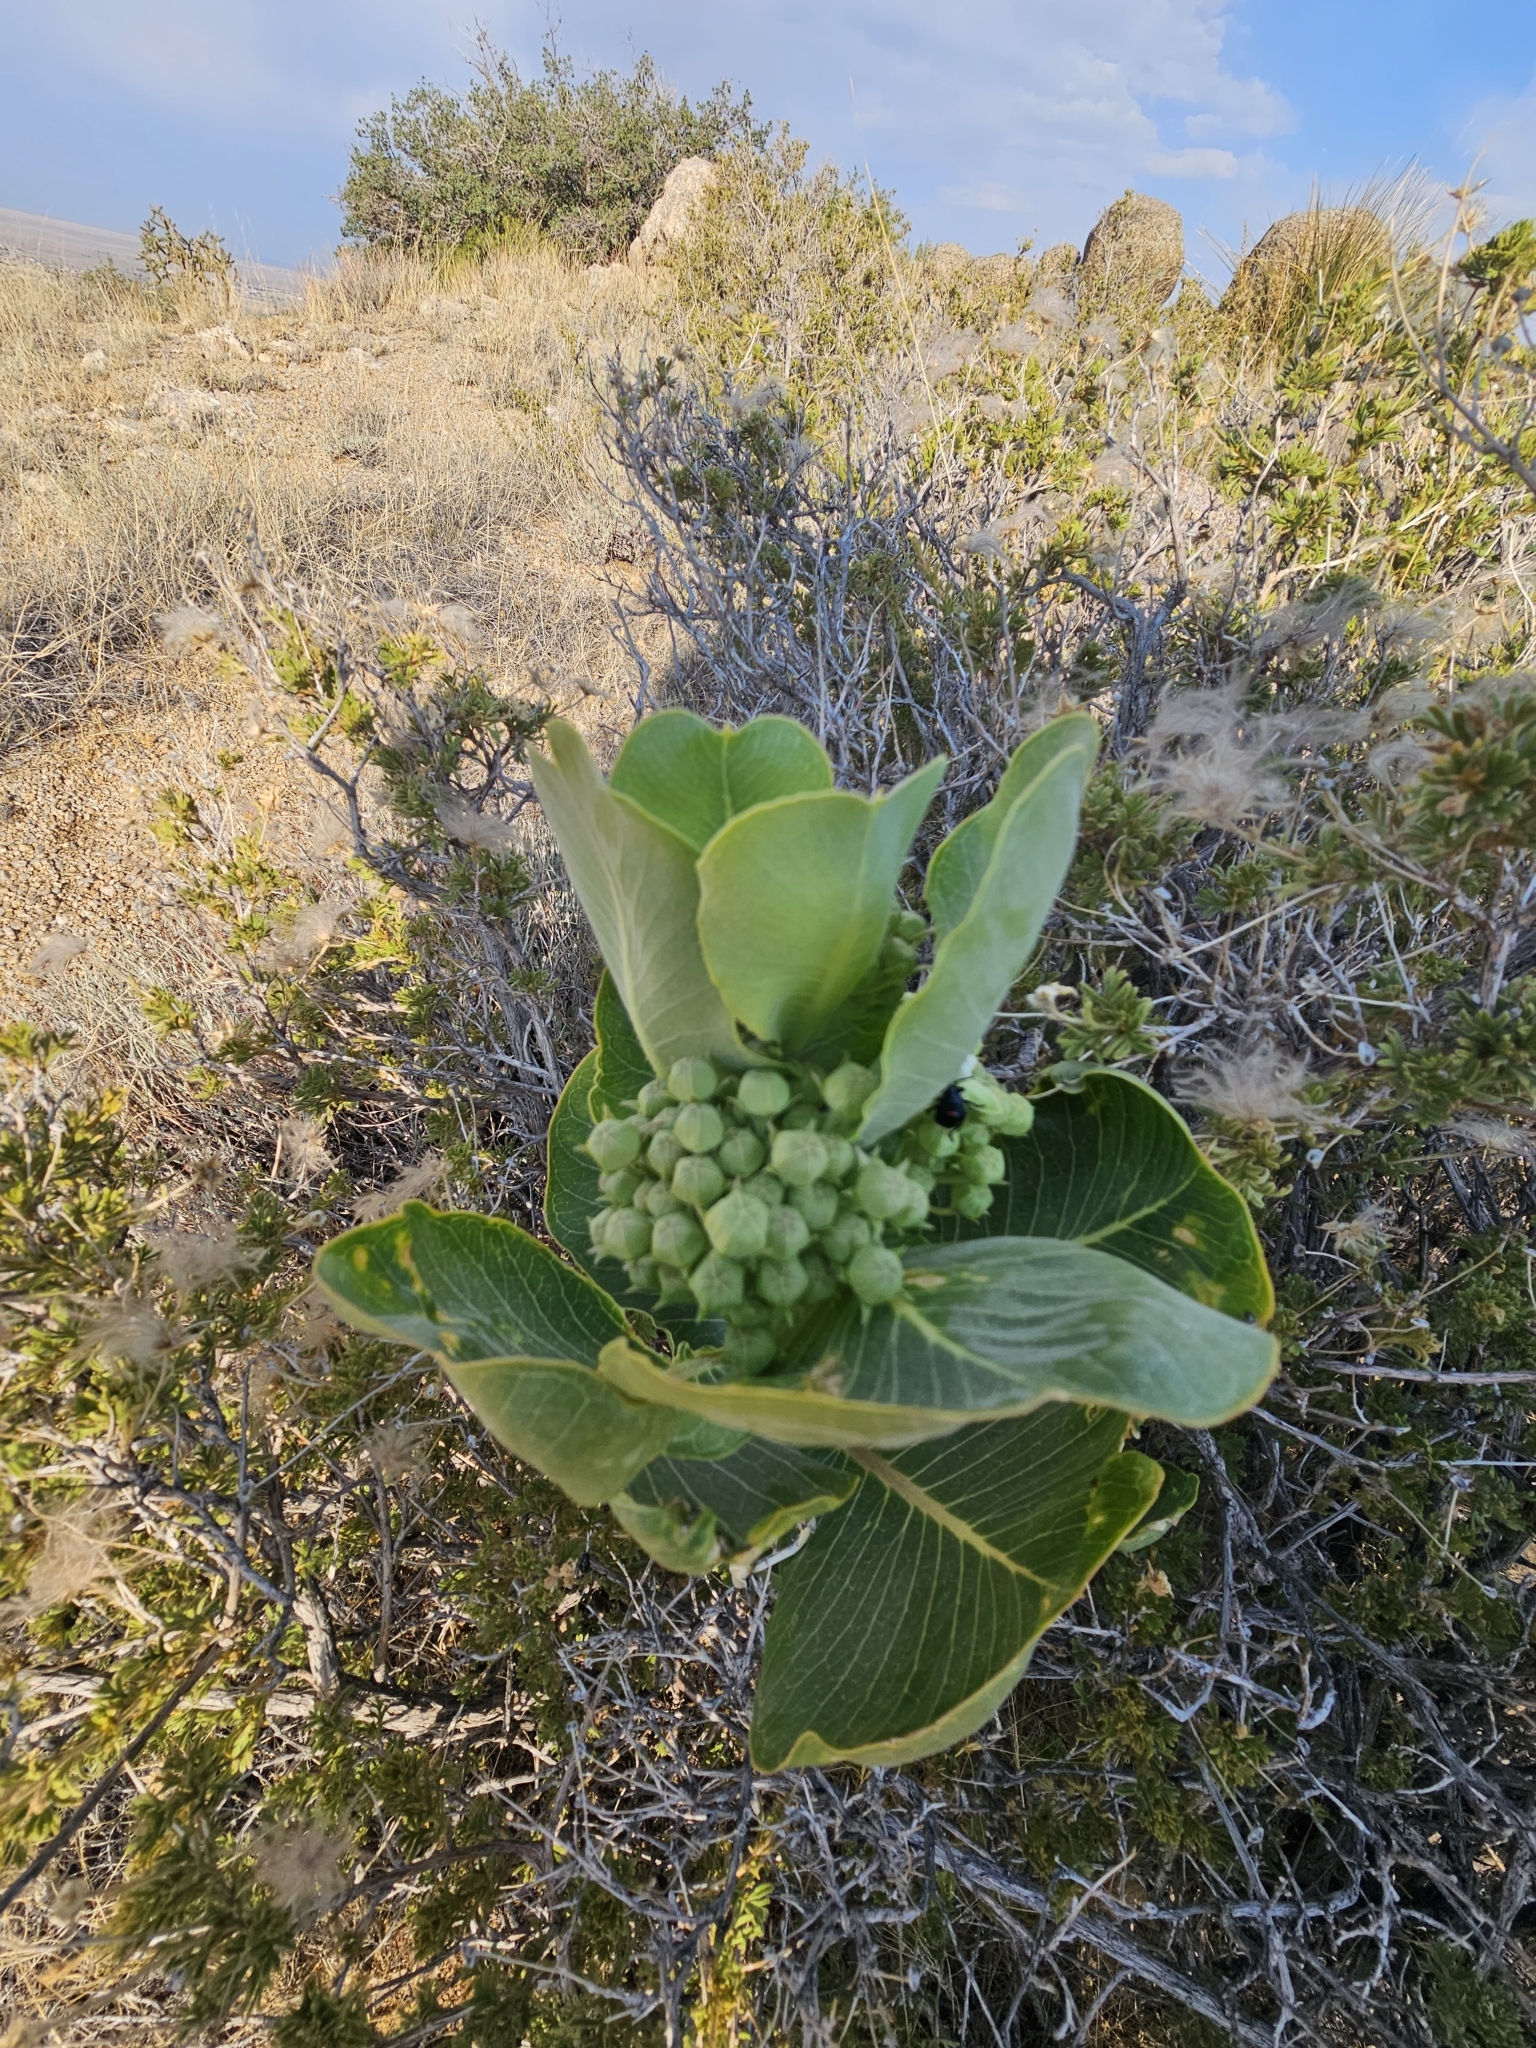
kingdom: Plantae
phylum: Tracheophyta
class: Magnoliopsida
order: Gentianales
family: Apocynaceae
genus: Asclepias
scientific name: Asclepias latifolia
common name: Broadleaf milkweed
